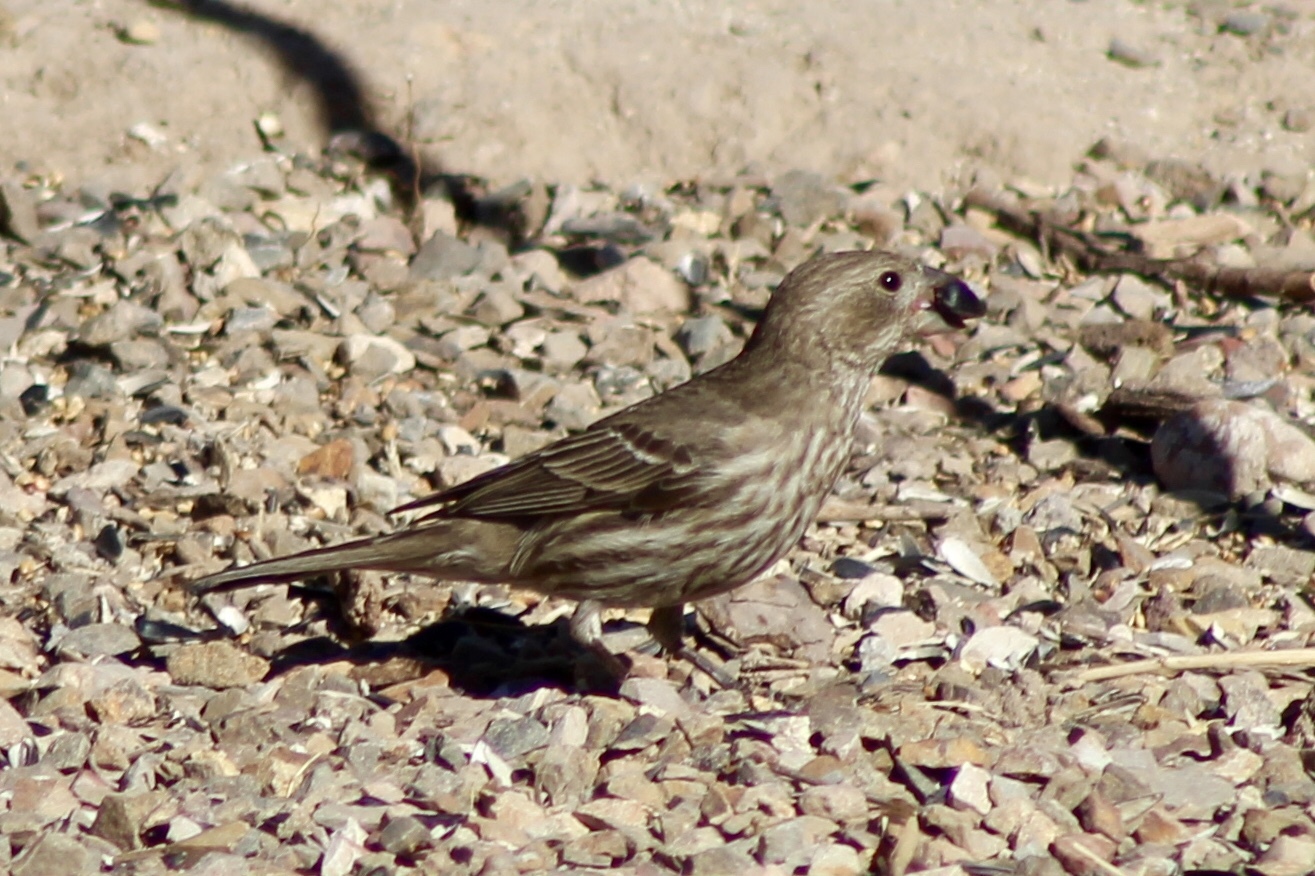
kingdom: Animalia
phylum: Chordata
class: Aves
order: Passeriformes
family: Fringillidae
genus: Haemorhous
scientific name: Haemorhous mexicanus
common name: House finch
